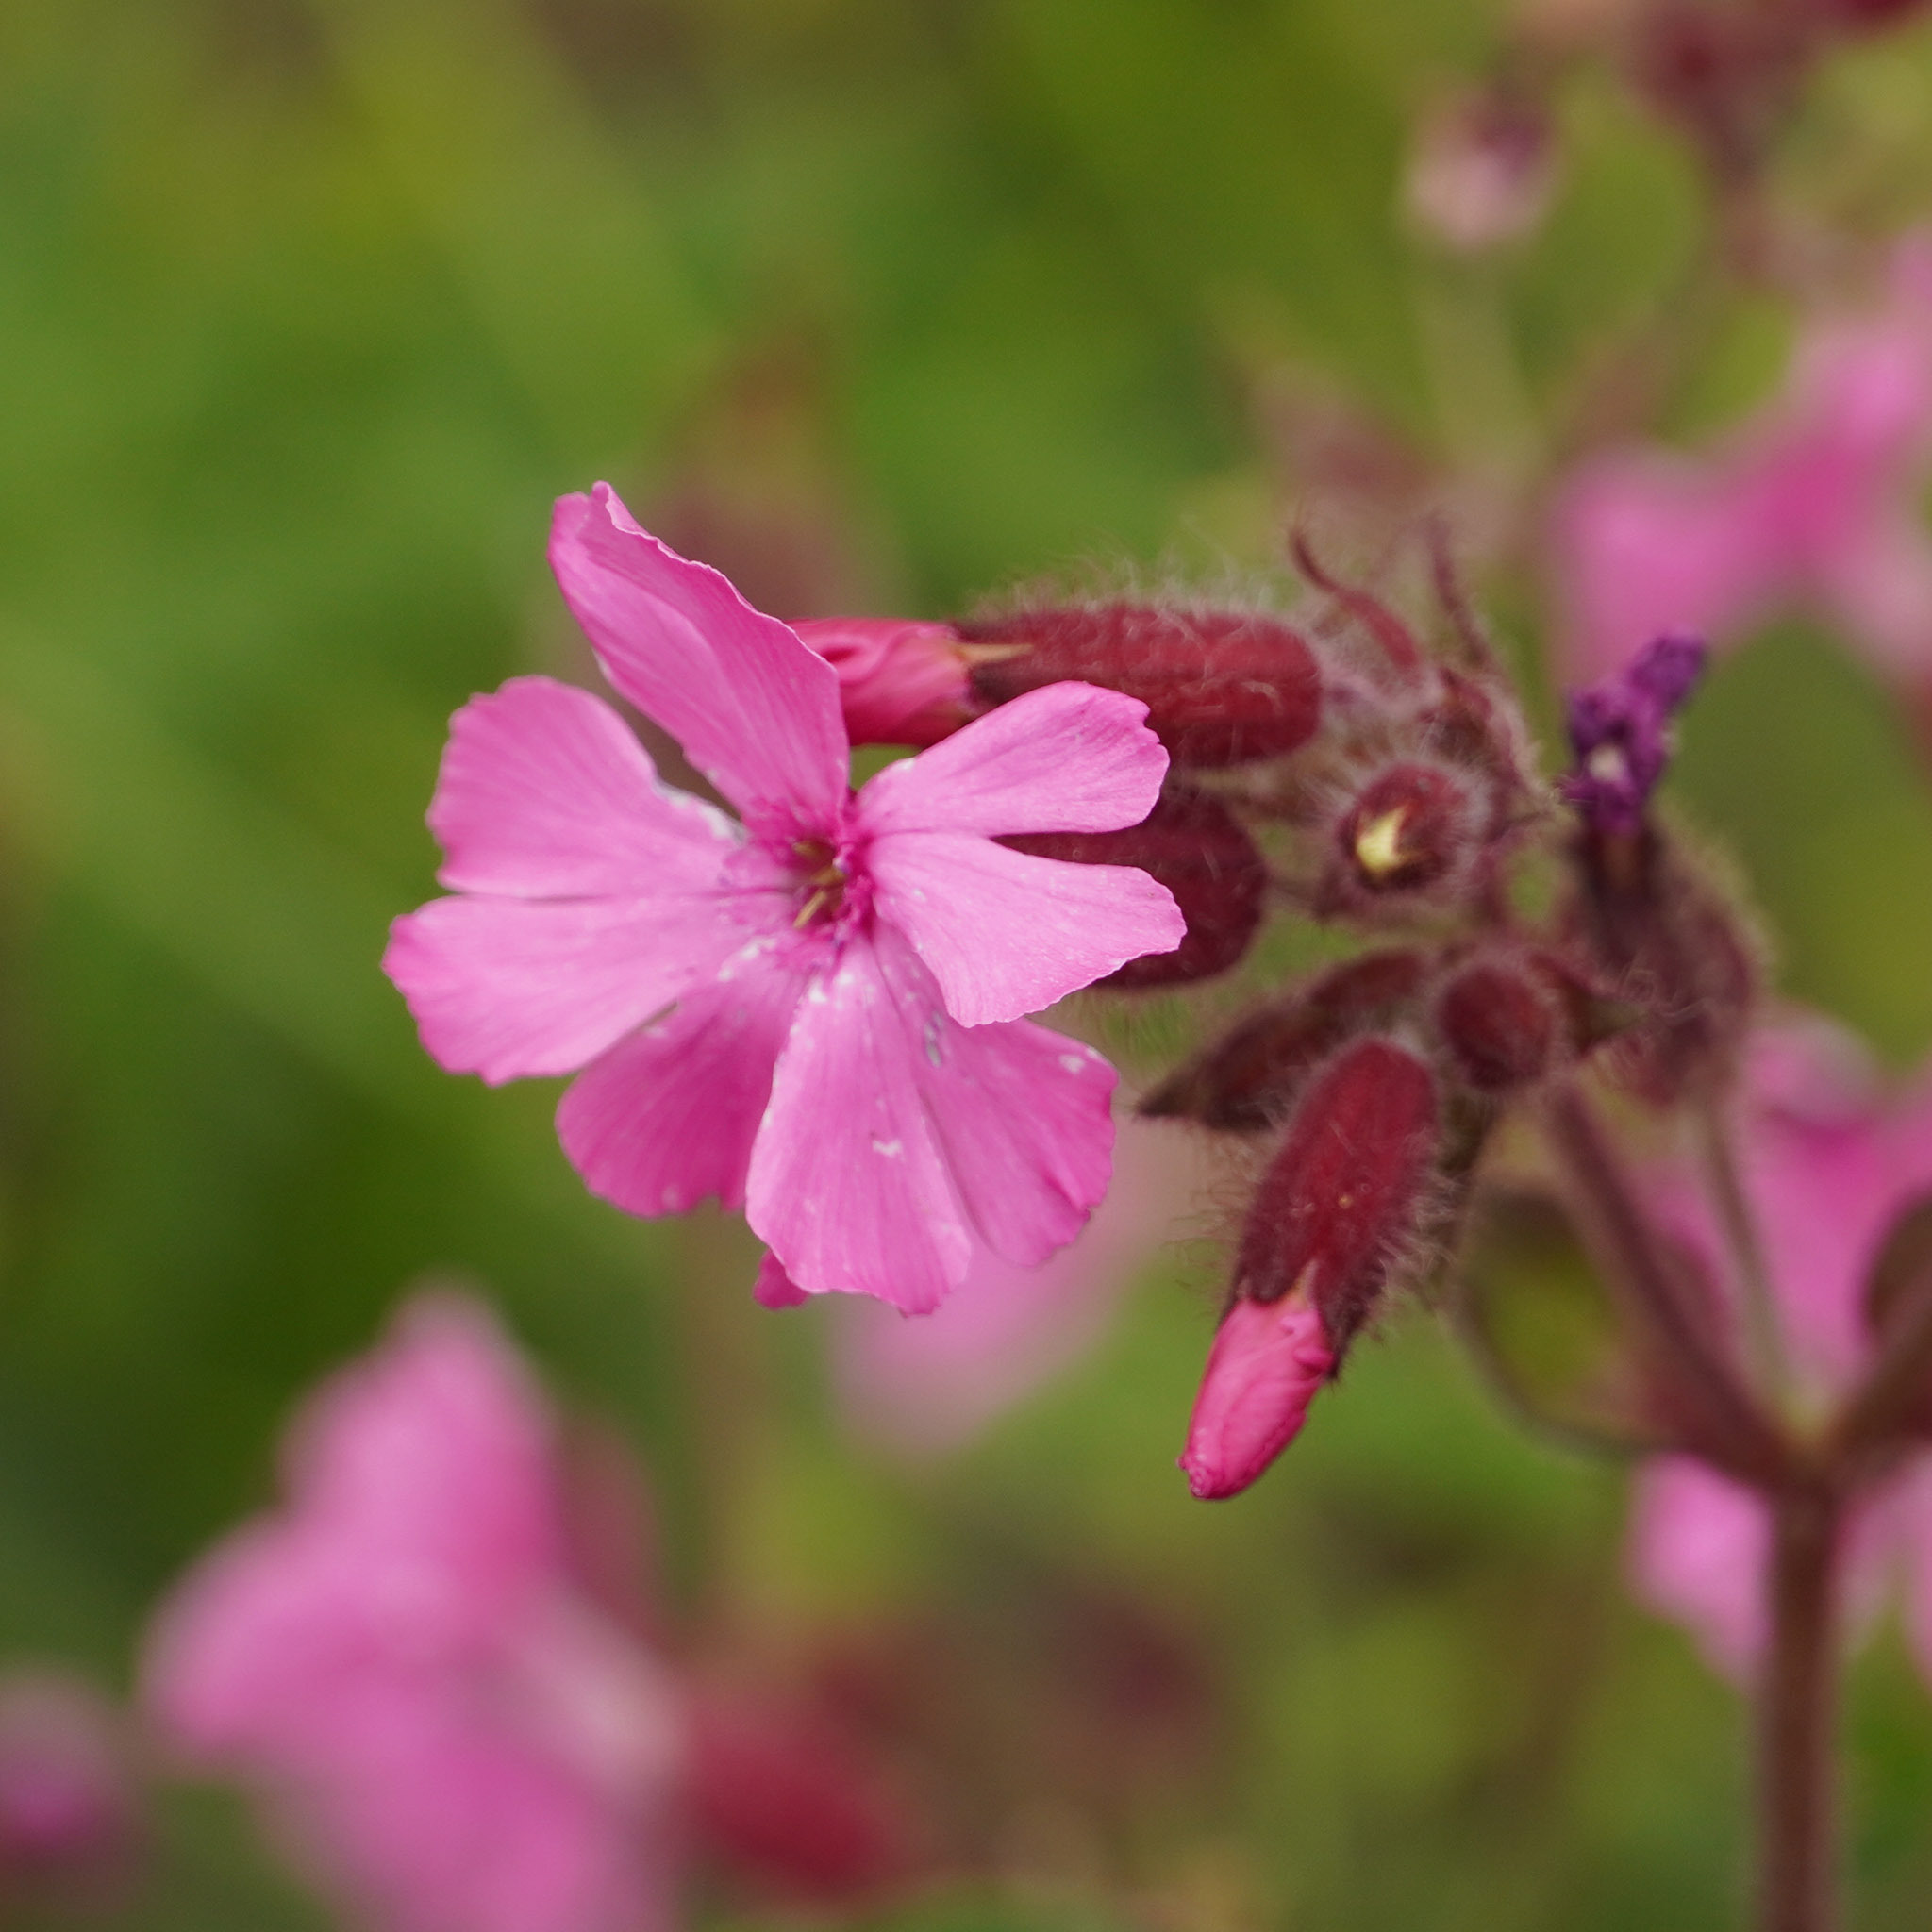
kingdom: Plantae
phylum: Tracheophyta
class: Magnoliopsida
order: Caryophyllales
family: Caryophyllaceae
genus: Silene
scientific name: Silene dioica
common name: Red campion
